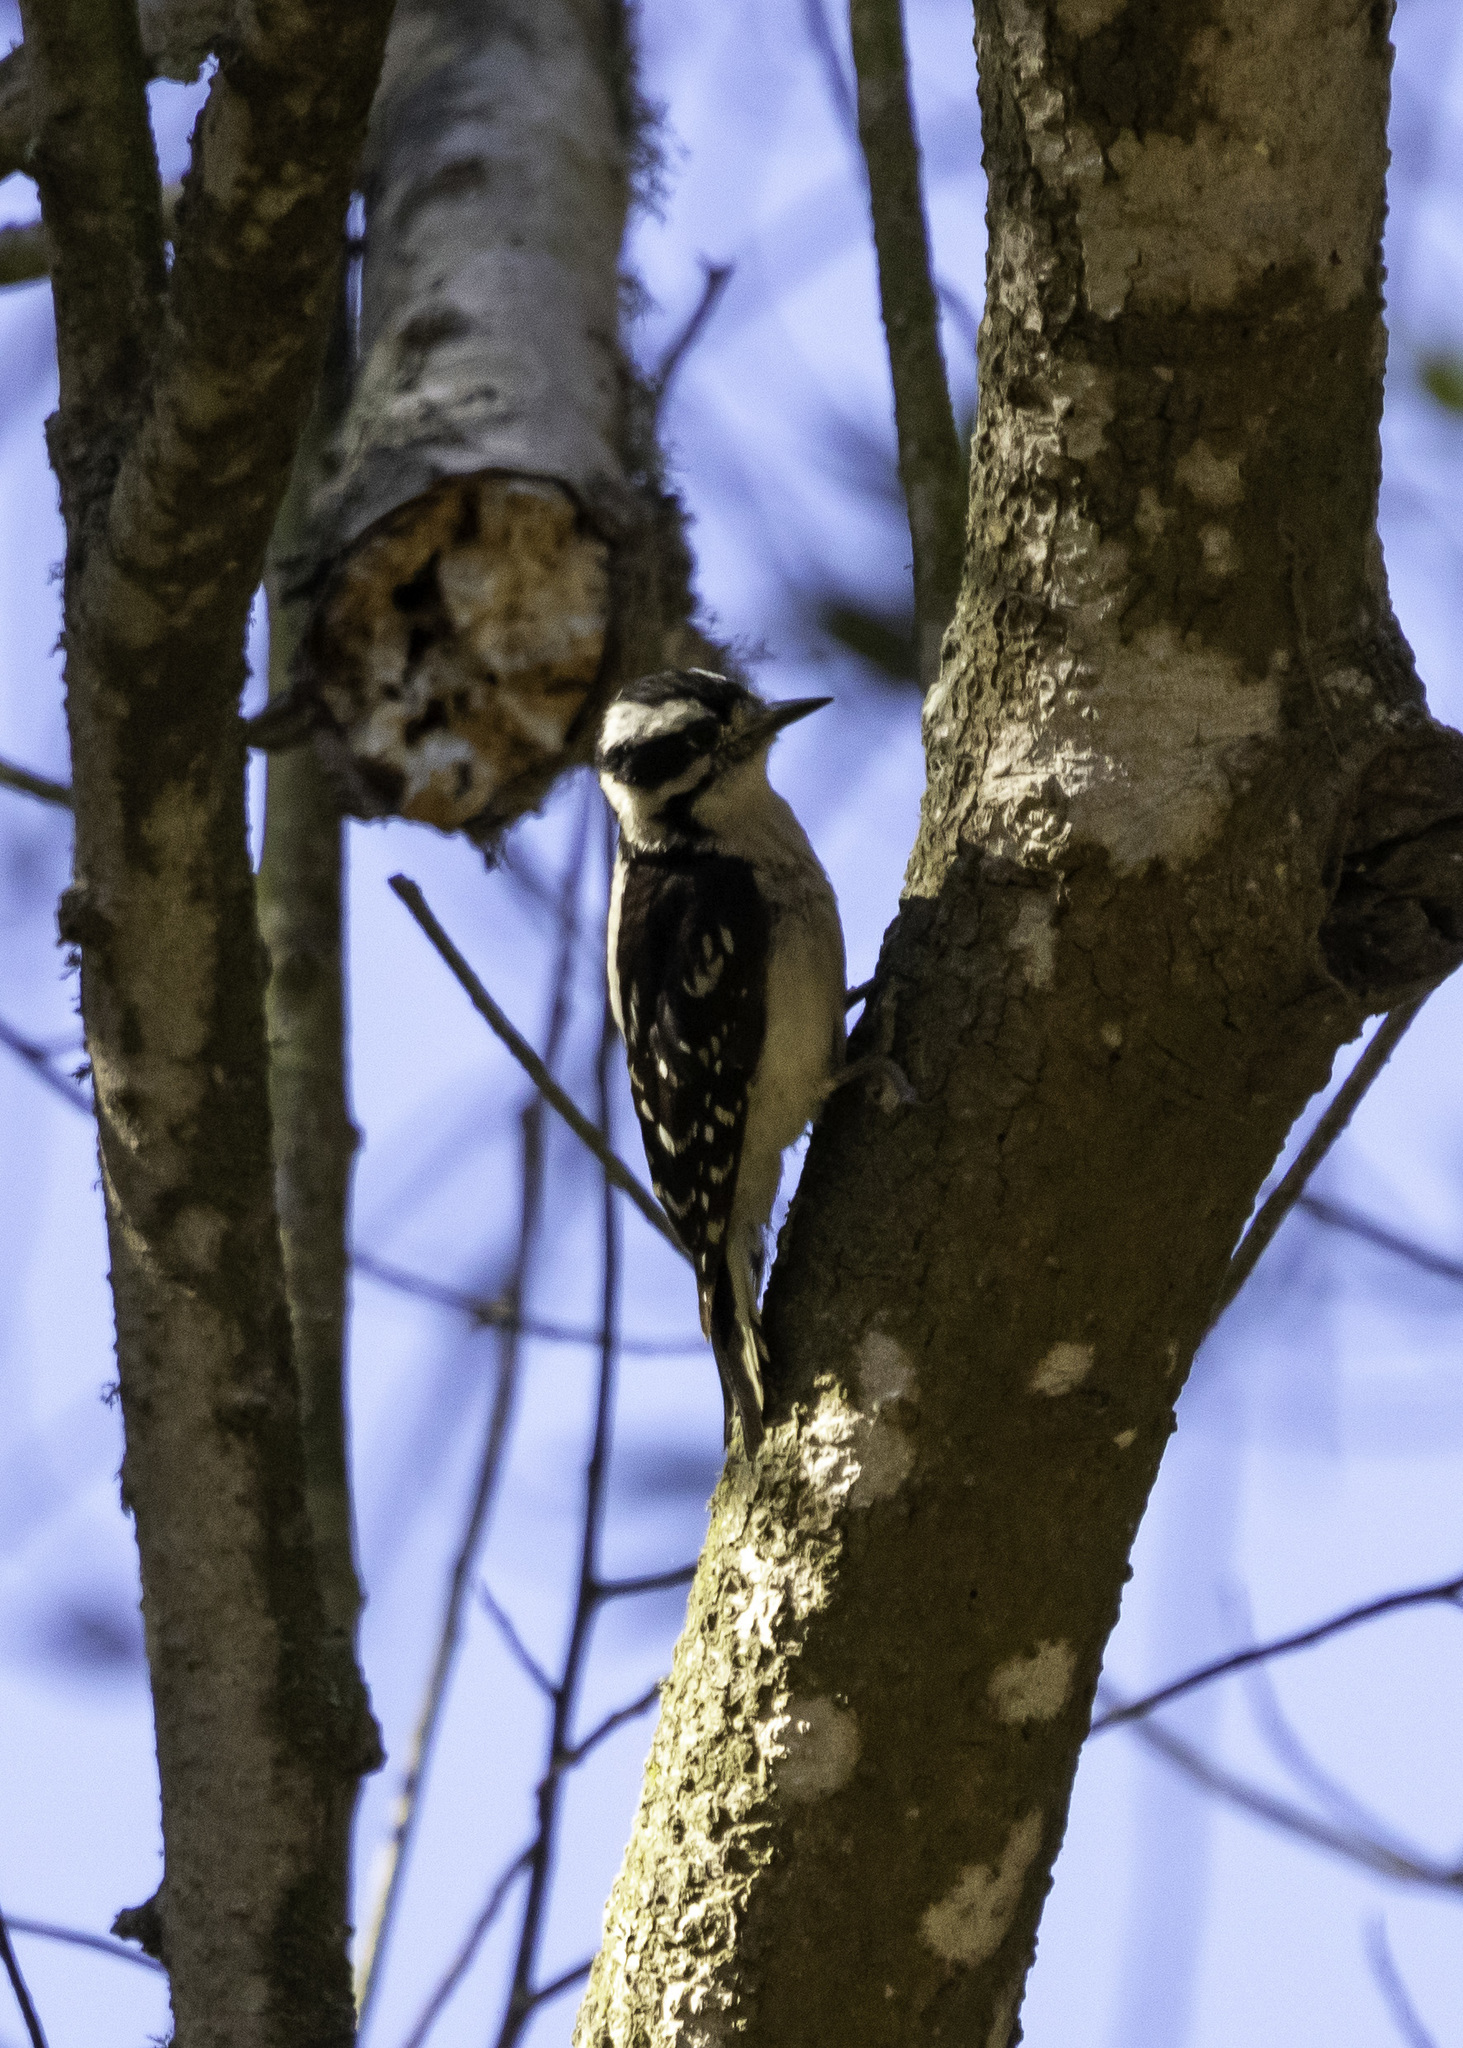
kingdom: Animalia
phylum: Chordata
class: Aves
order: Piciformes
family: Picidae
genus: Dryobates
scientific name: Dryobates pubescens
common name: Downy woodpecker
